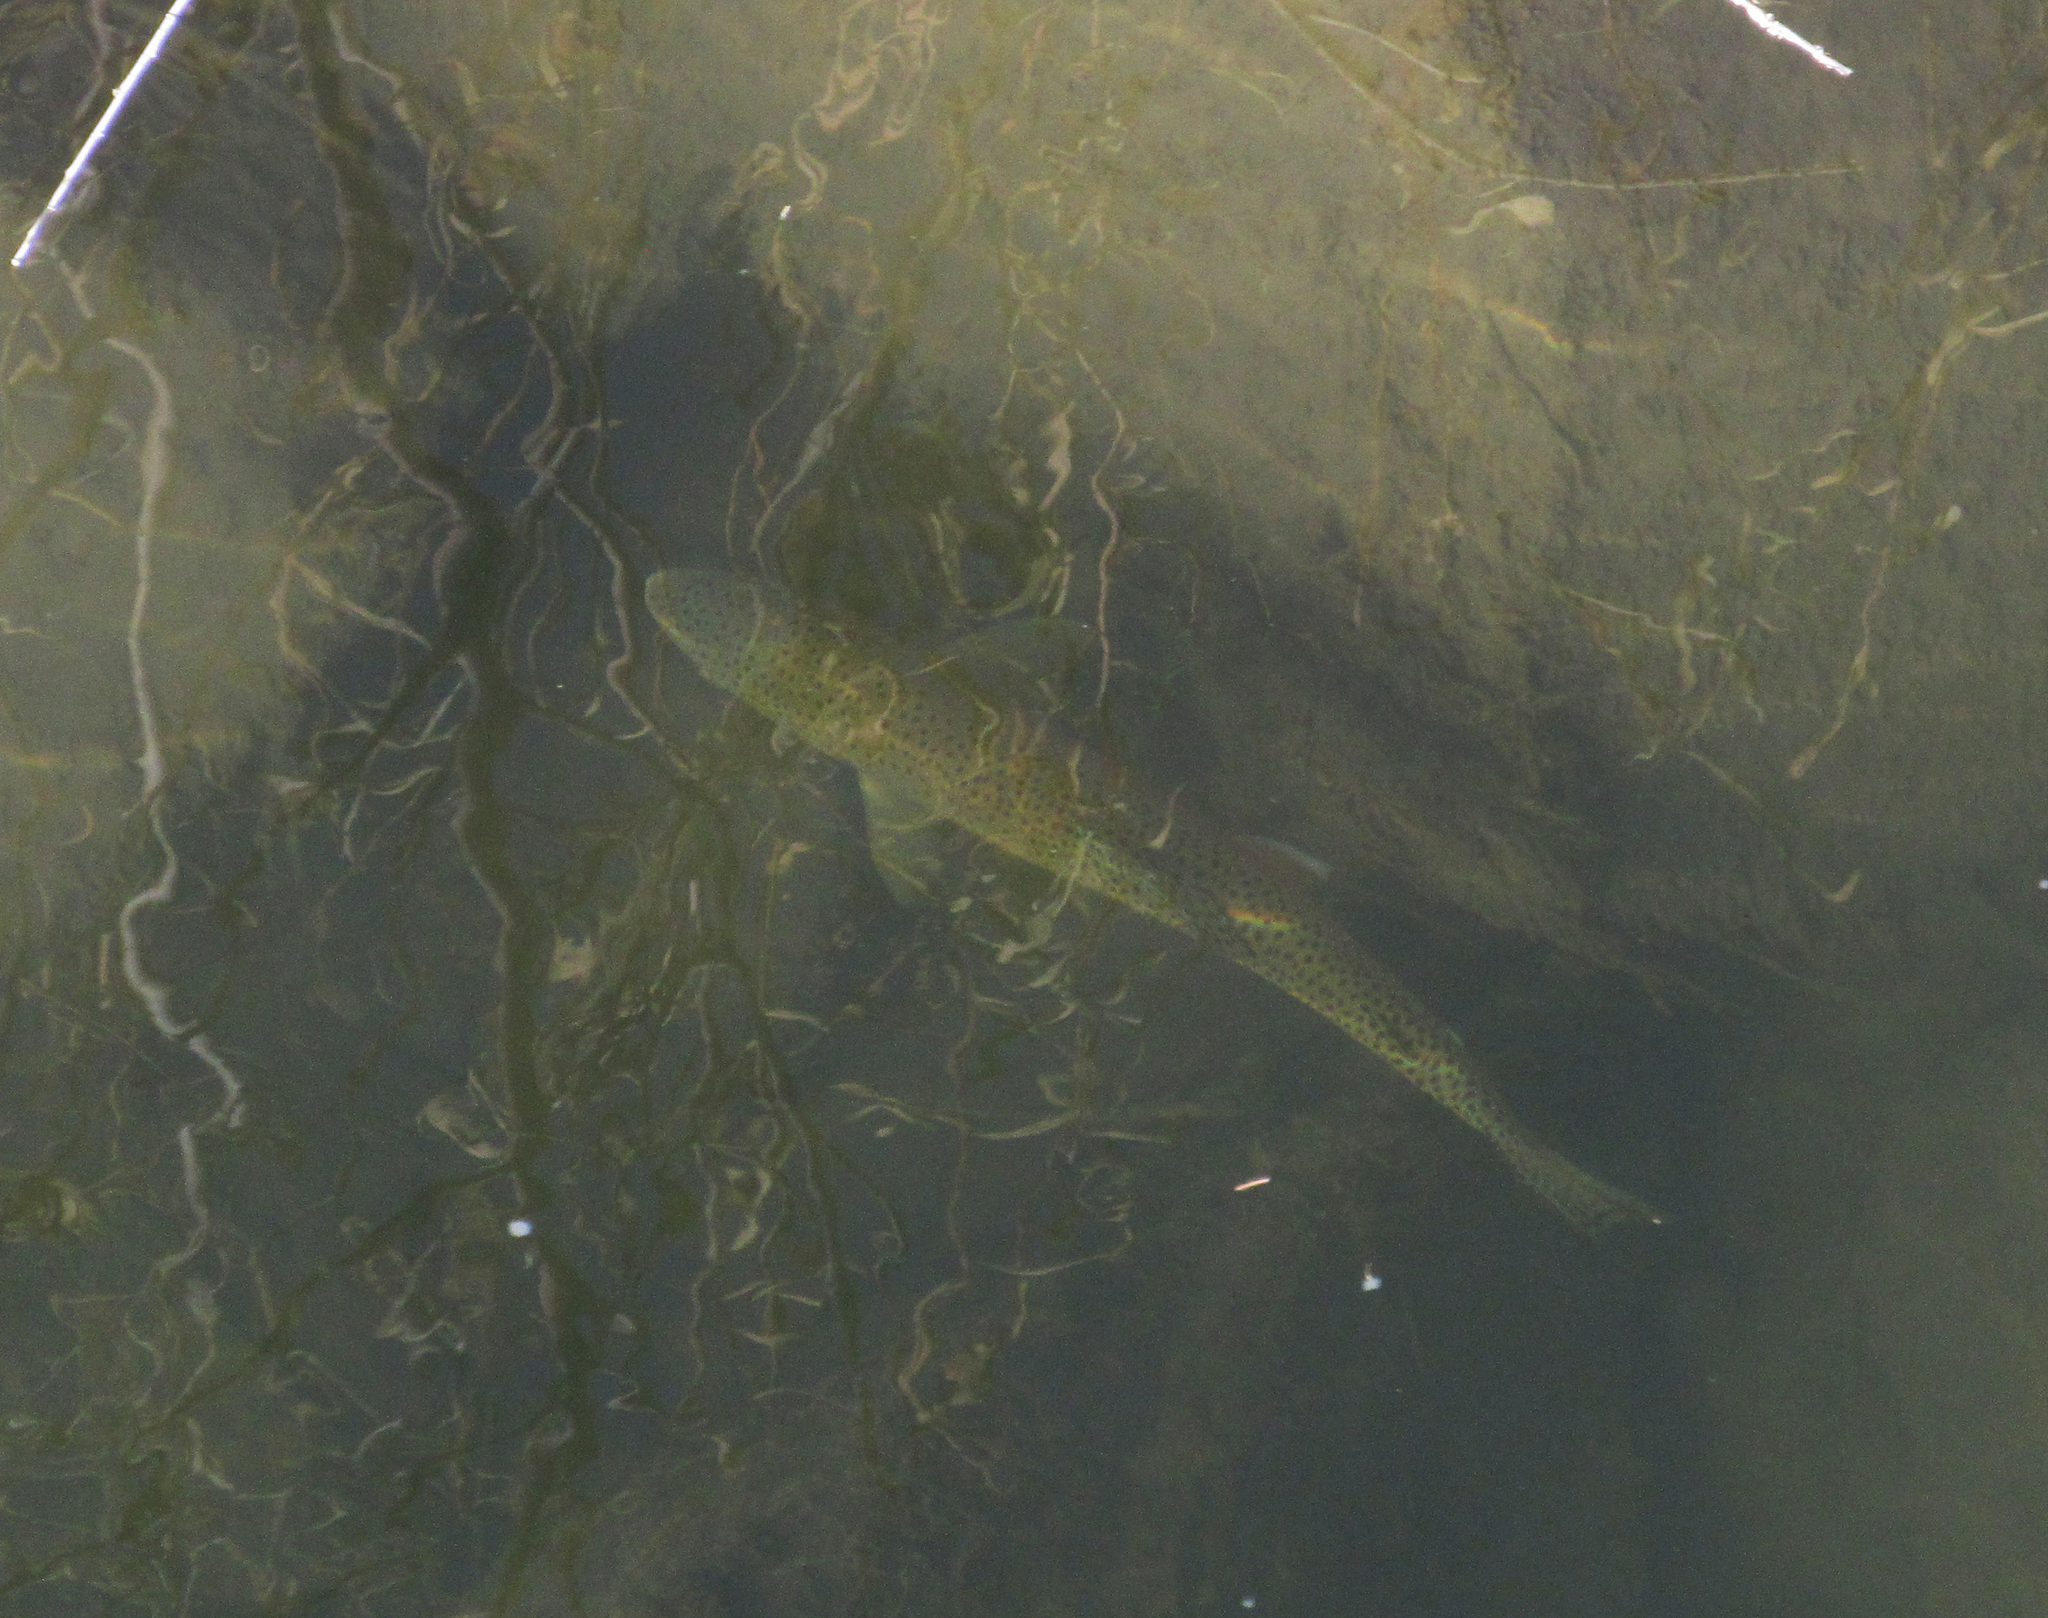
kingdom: Animalia
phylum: Chordata
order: Salmoniformes
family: Salmonidae
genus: Oncorhynchus
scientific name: Oncorhynchus mykiss
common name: Rainbow trout
